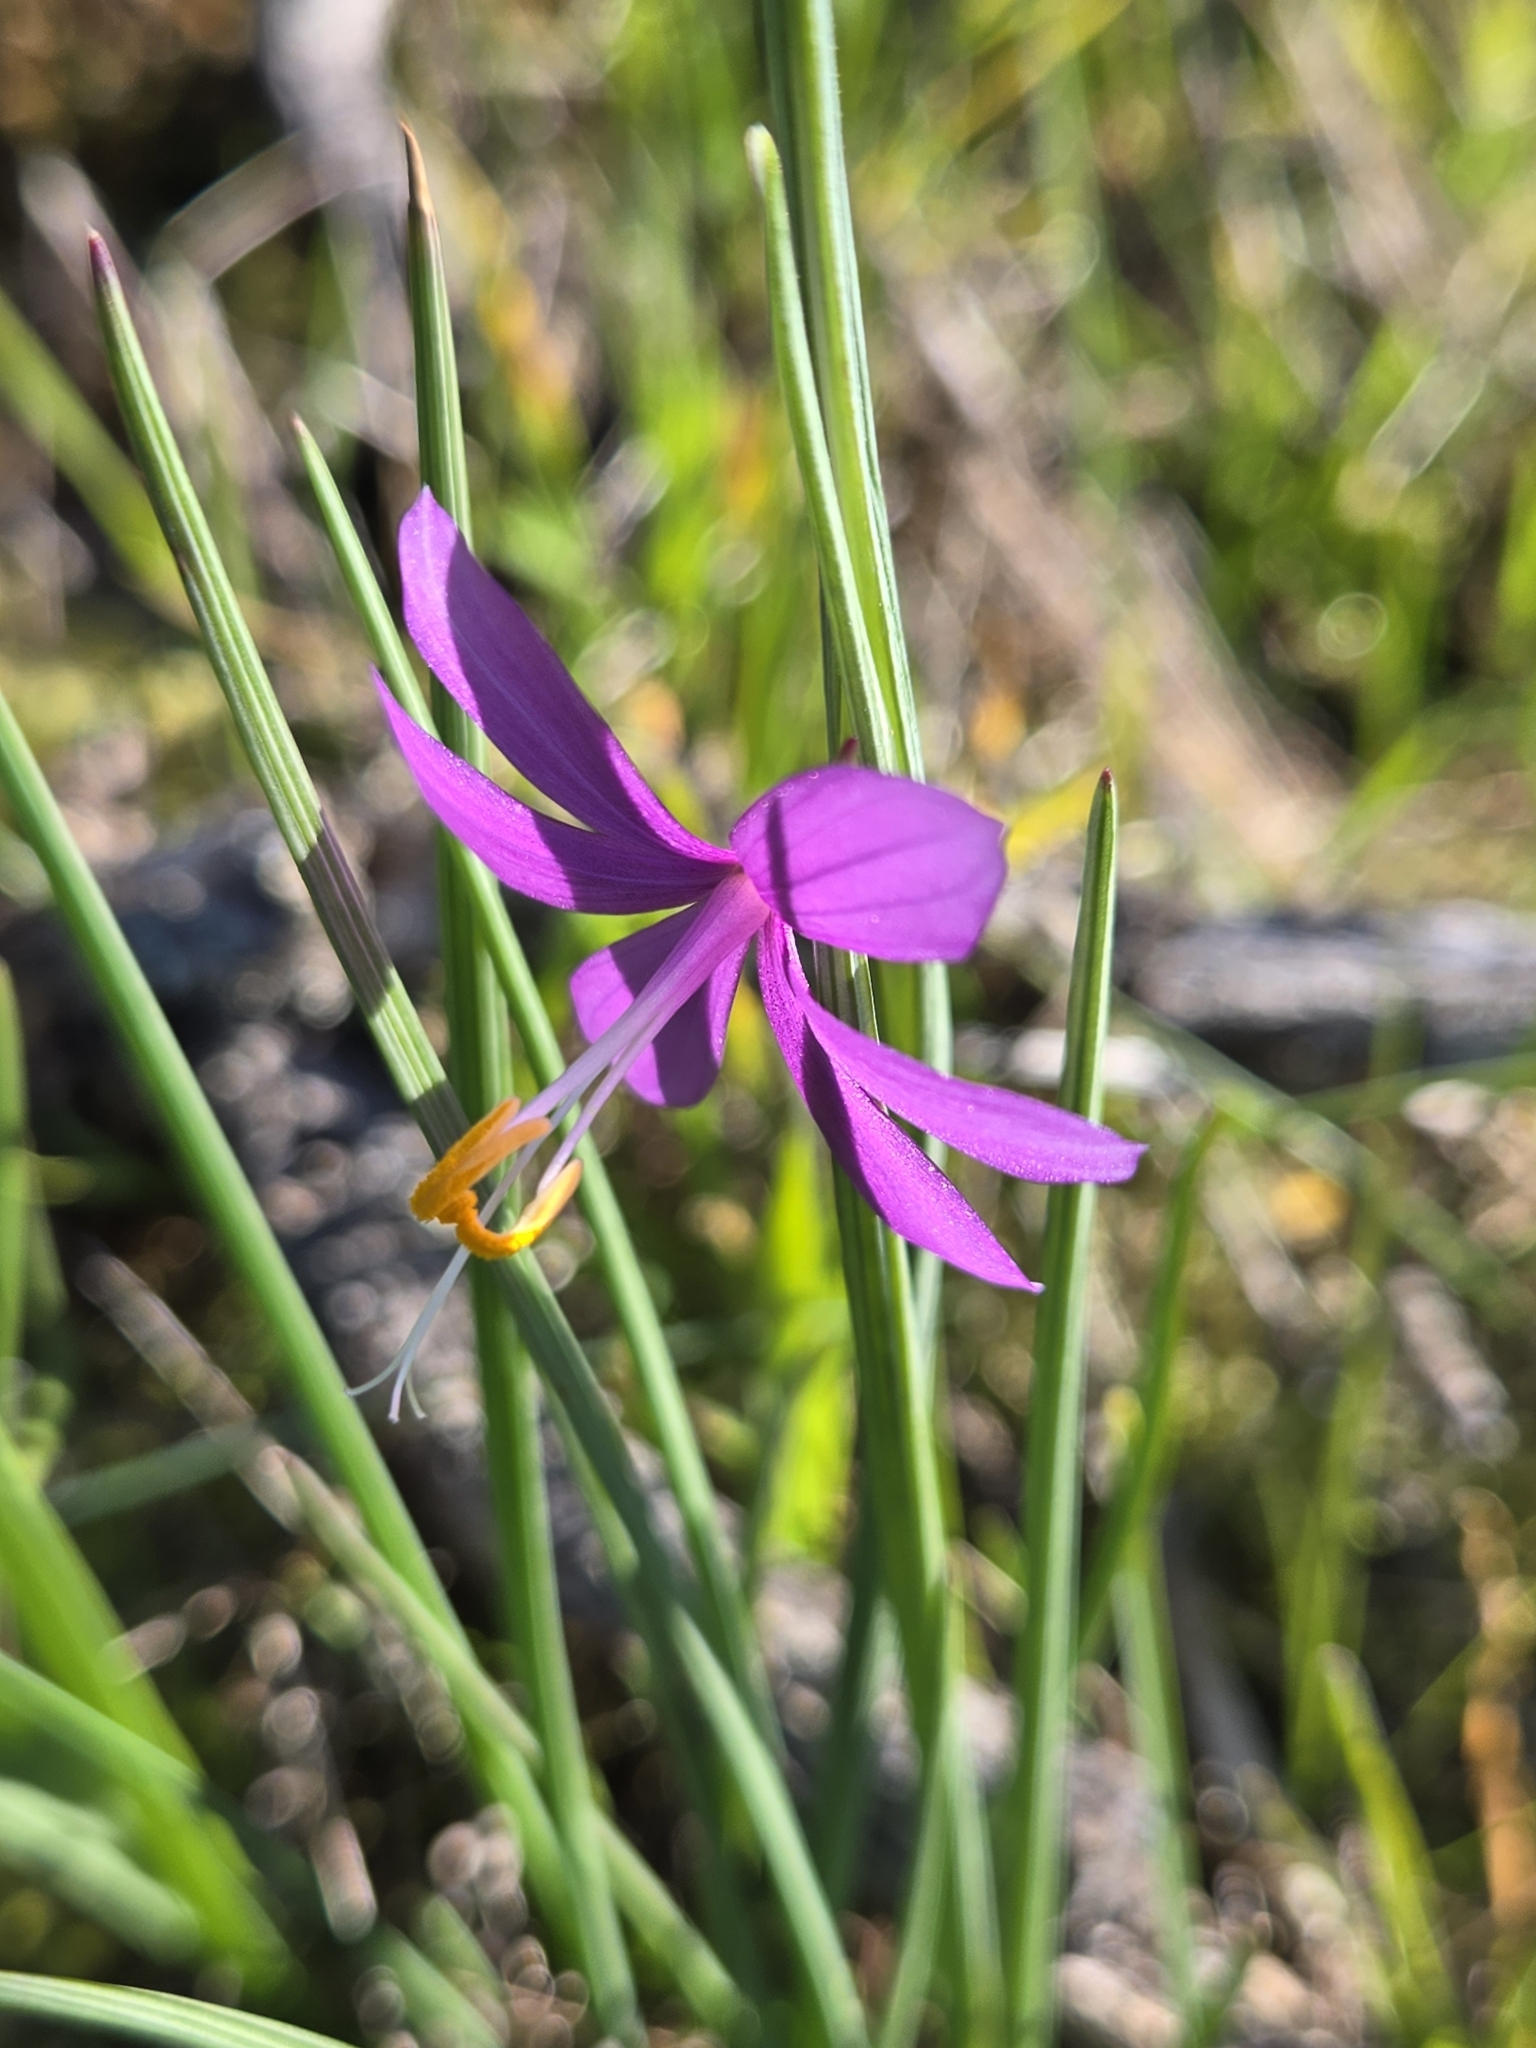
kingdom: Plantae
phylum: Tracheophyta
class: Liliopsida
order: Asparagales
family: Iridaceae
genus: Olsynium
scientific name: Olsynium douglasii
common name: Douglas' grasswidow
